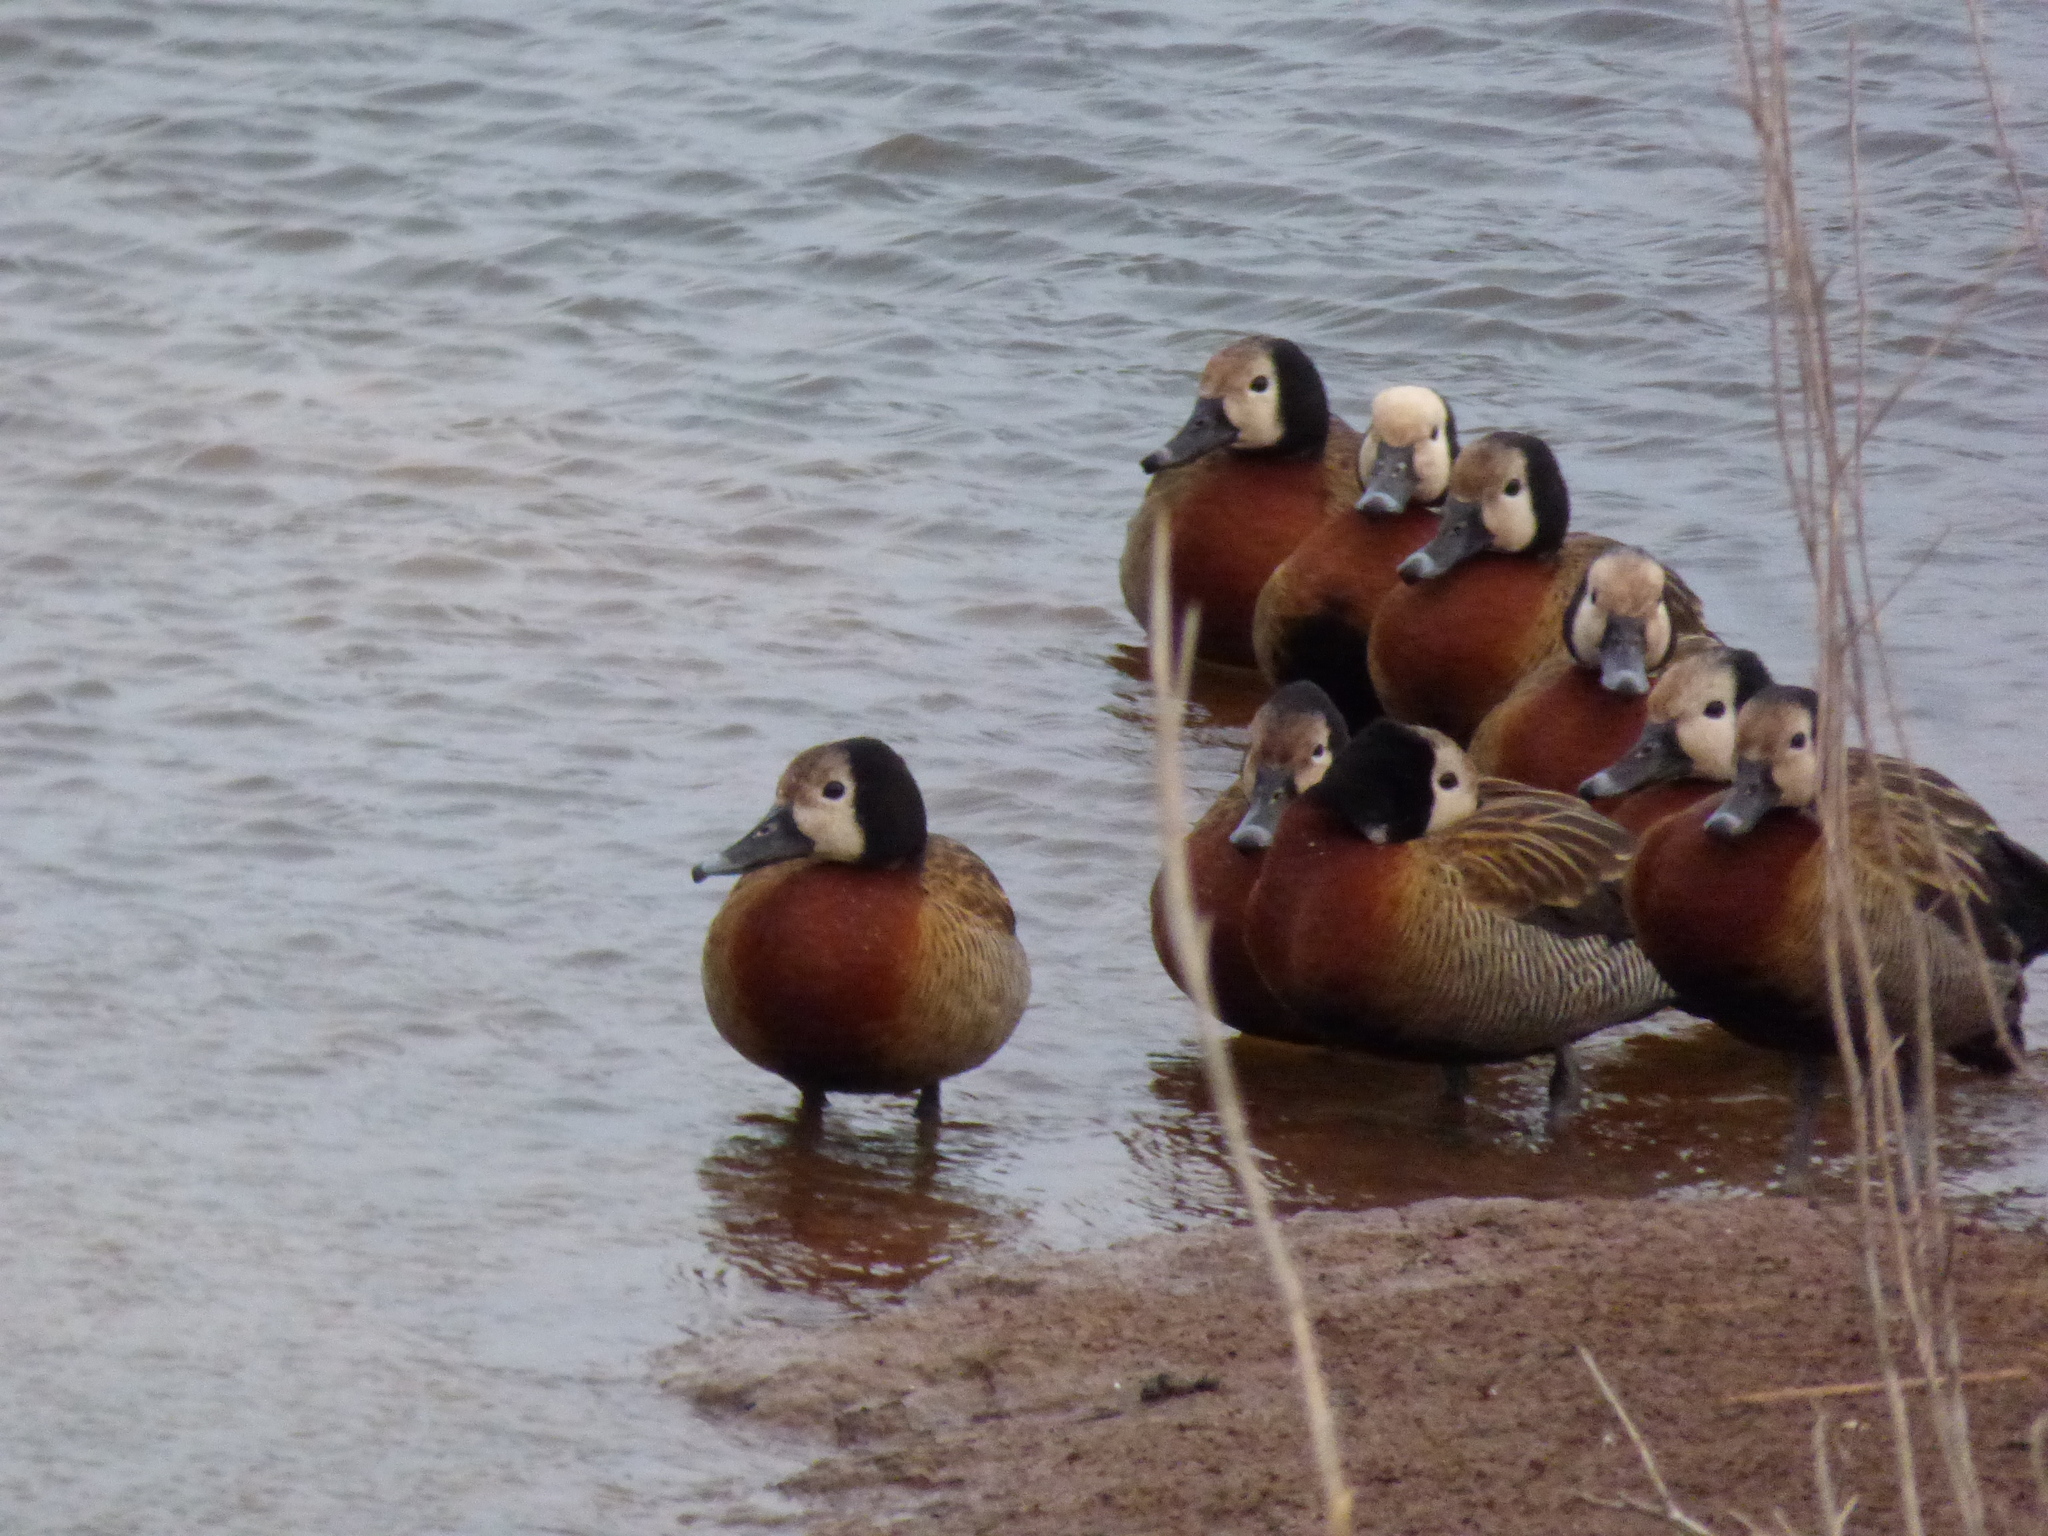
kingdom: Animalia
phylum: Chordata
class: Aves
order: Anseriformes
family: Anatidae
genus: Dendrocygna
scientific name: Dendrocygna viduata
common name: White-faced whistling duck
